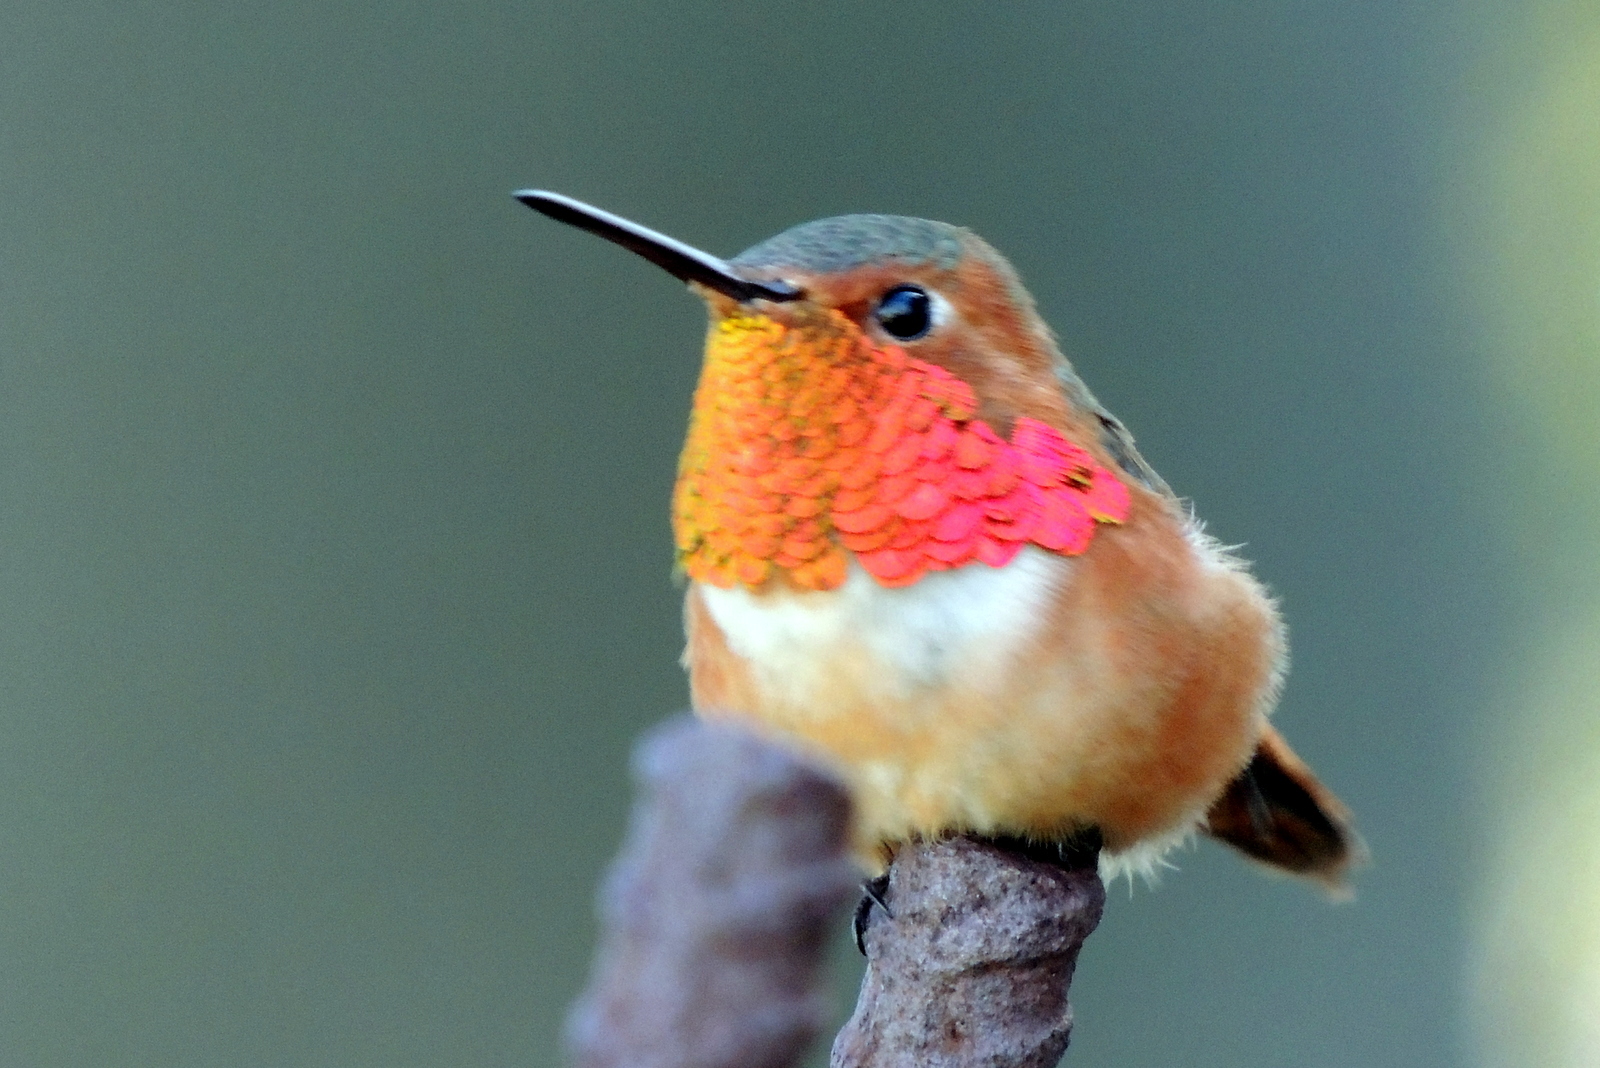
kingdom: Animalia
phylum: Chordata
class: Aves
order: Apodiformes
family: Trochilidae
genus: Selasphorus
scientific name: Selasphorus sasin
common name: Allen's hummingbird
